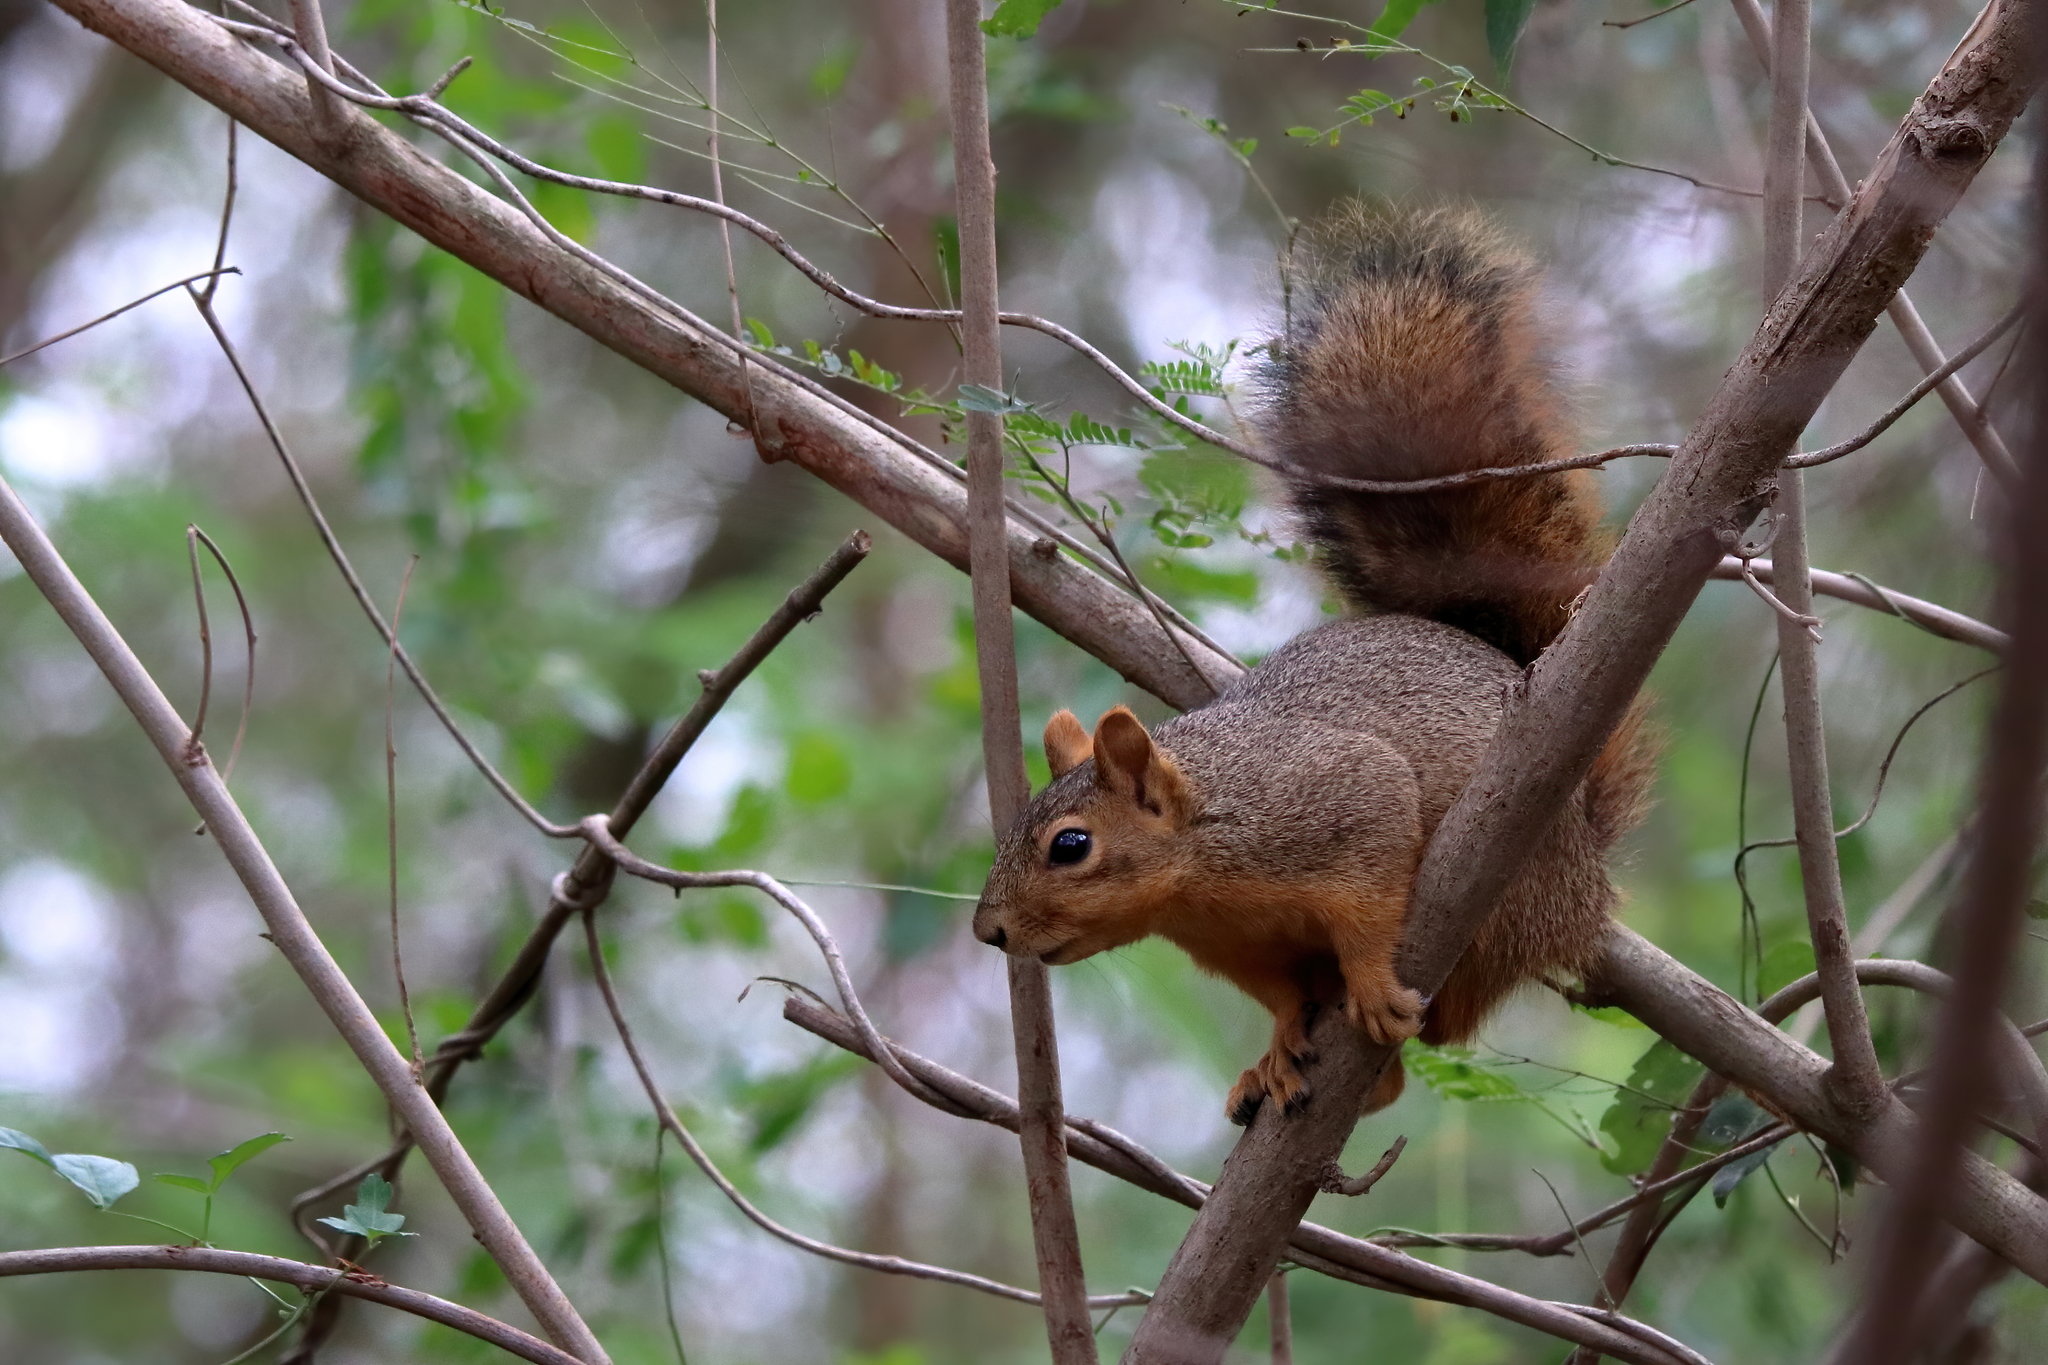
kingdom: Animalia
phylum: Chordata
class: Mammalia
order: Rodentia
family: Sciuridae
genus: Sciurus
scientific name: Sciurus niger
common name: Fox squirrel
